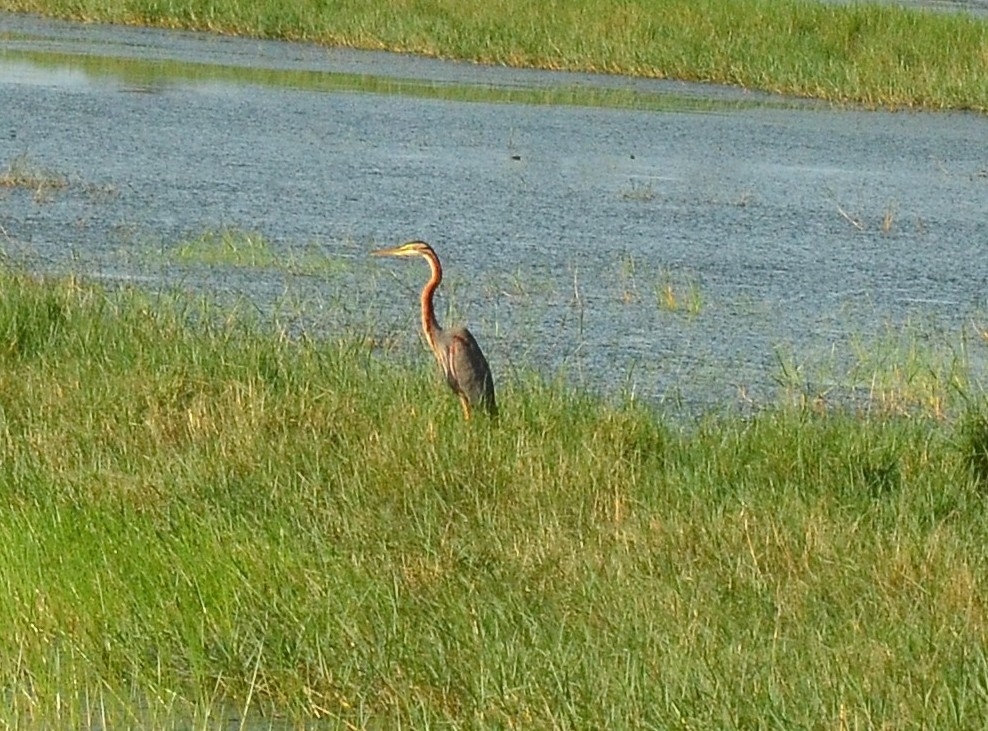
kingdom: Animalia
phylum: Chordata
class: Aves
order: Pelecaniformes
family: Ardeidae
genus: Ardea
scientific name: Ardea purpurea
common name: Purple heron
